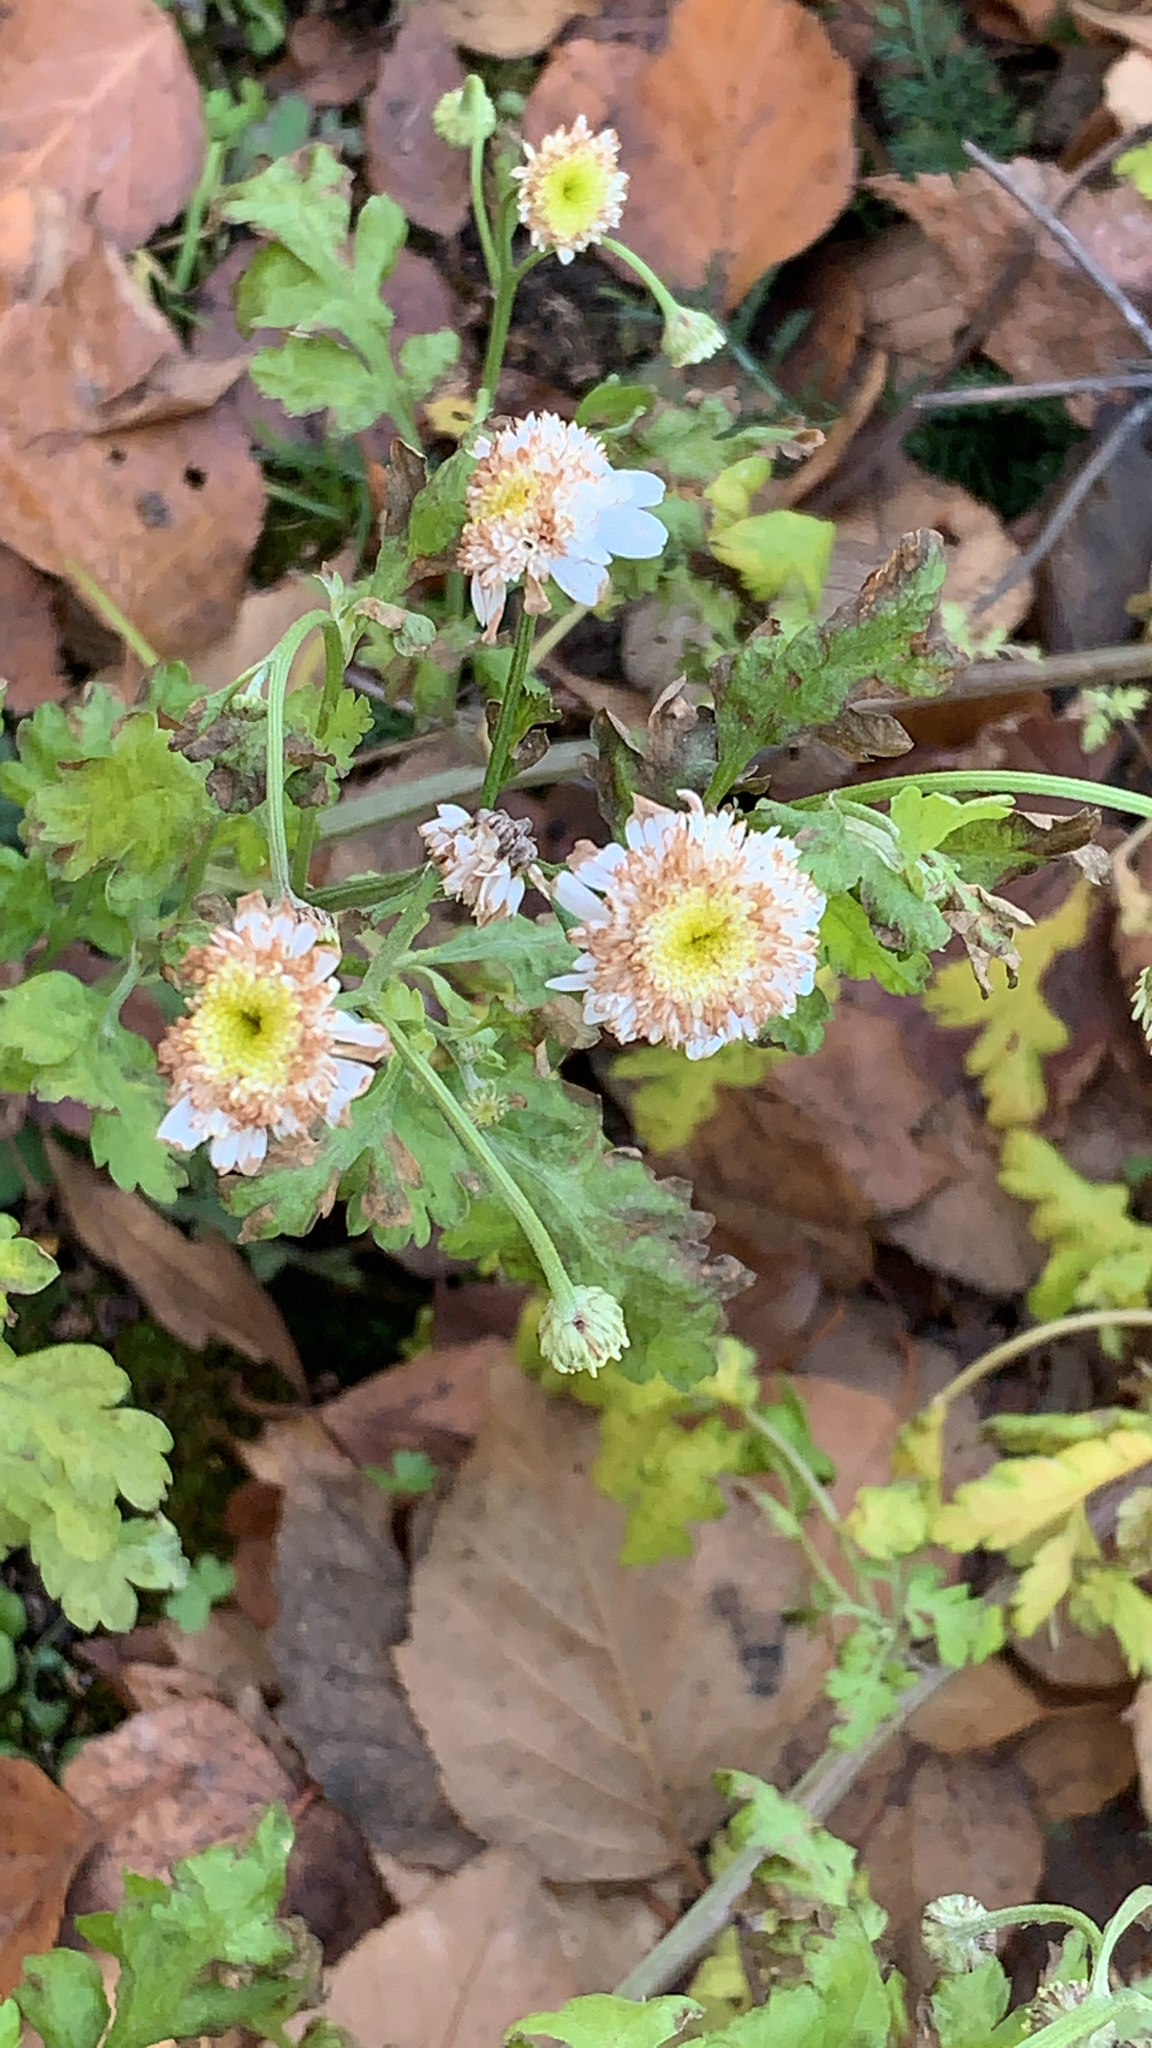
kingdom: Plantae
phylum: Tracheophyta
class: Magnoliopsida
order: Asterales
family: Asteraceae
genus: Tanacetum
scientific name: Tanacetum parthenium
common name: Feverfew
